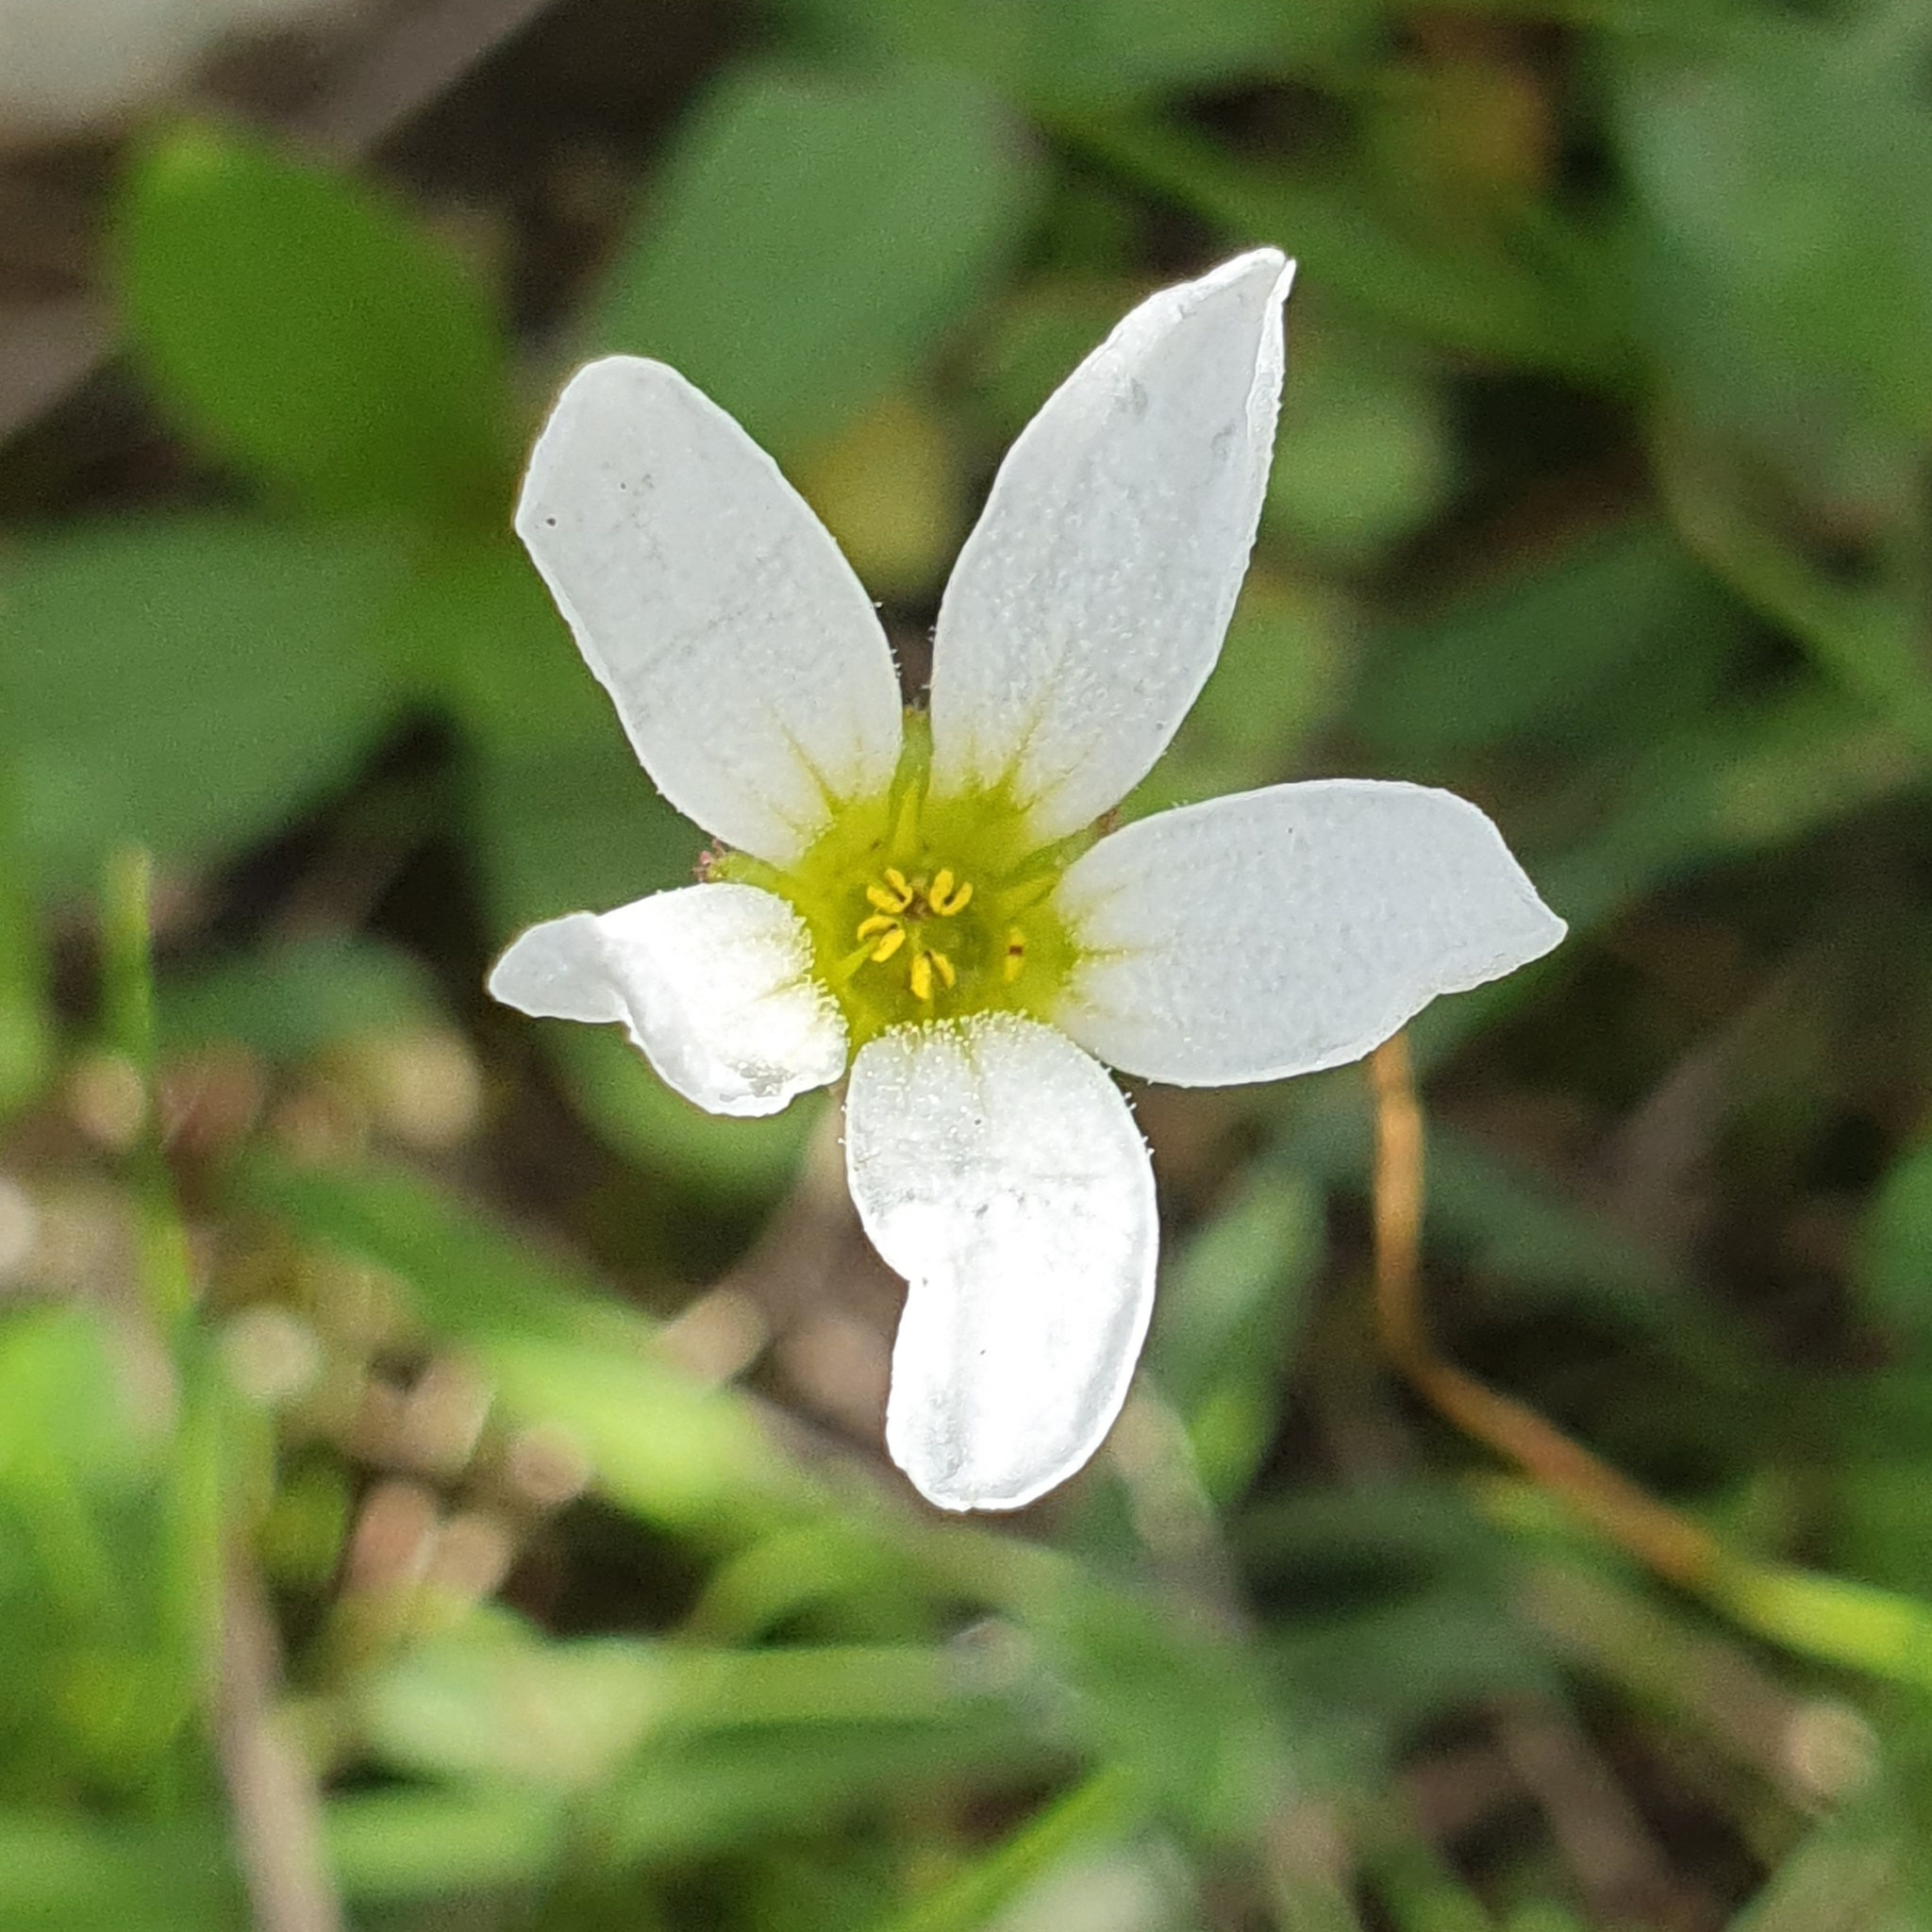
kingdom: Plantae
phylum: Tracheophyta
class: Magnoliopsida
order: Saxifragales
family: Saxifragaceae
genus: Saxifraga
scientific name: Saxifraga carpetana
